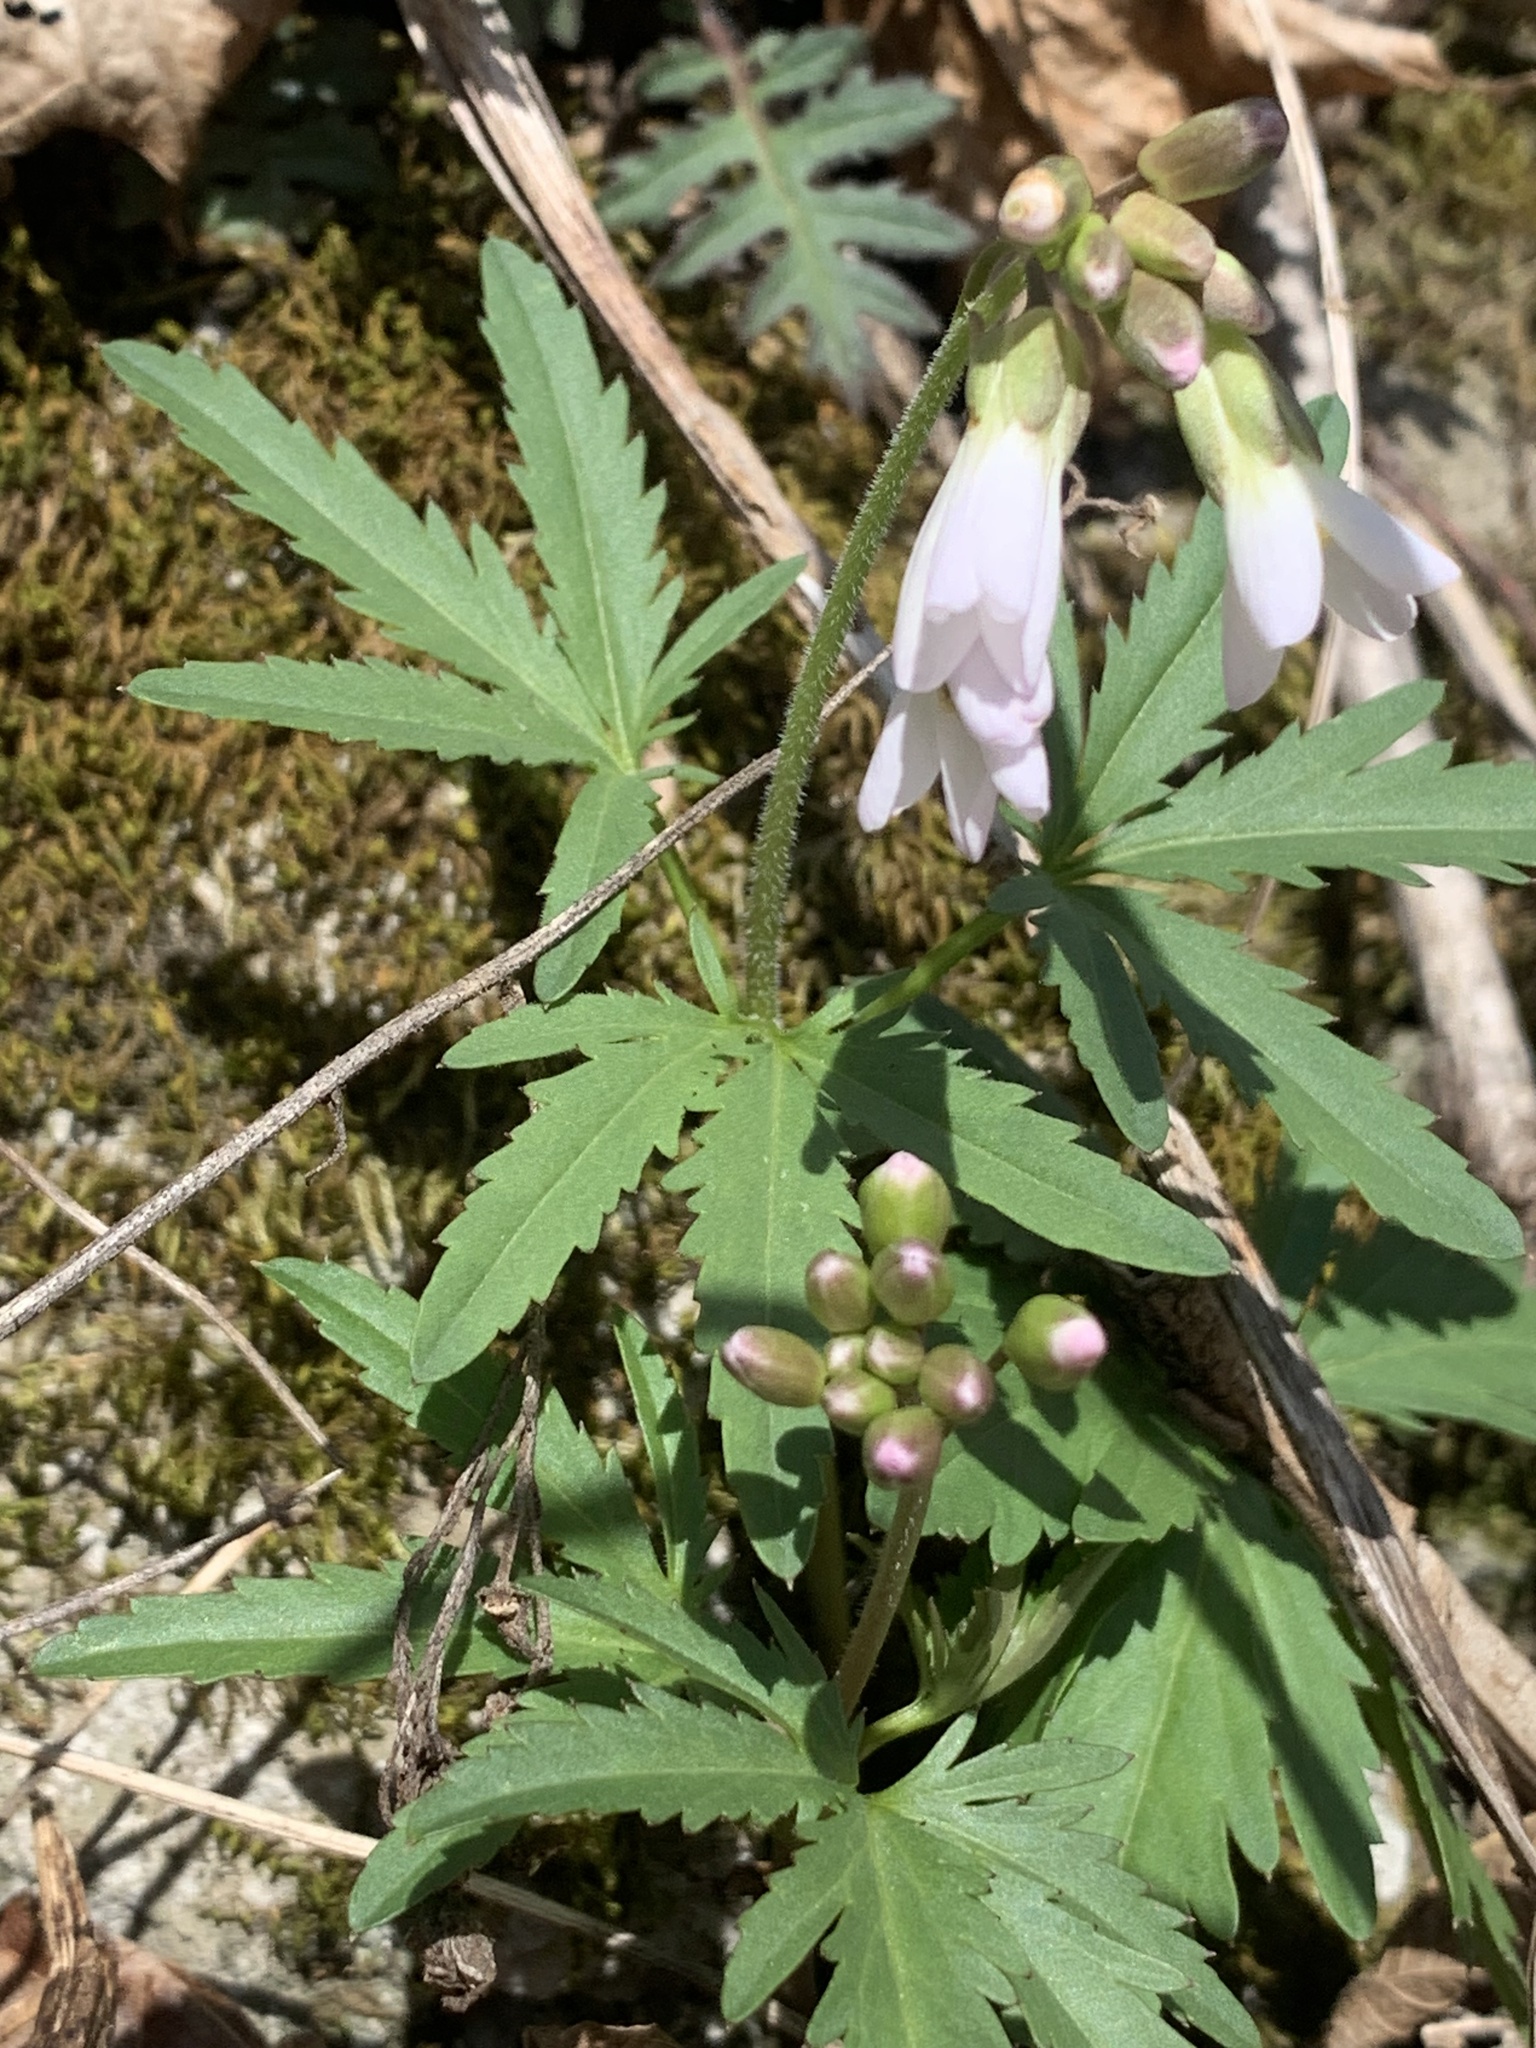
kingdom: Plantae
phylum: Tracheophyta
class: Magnoliopsida
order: Brassicales
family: Brassicaceae
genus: Cardamine
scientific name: Cardamine concatenata
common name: Cut-leaf toothcup
